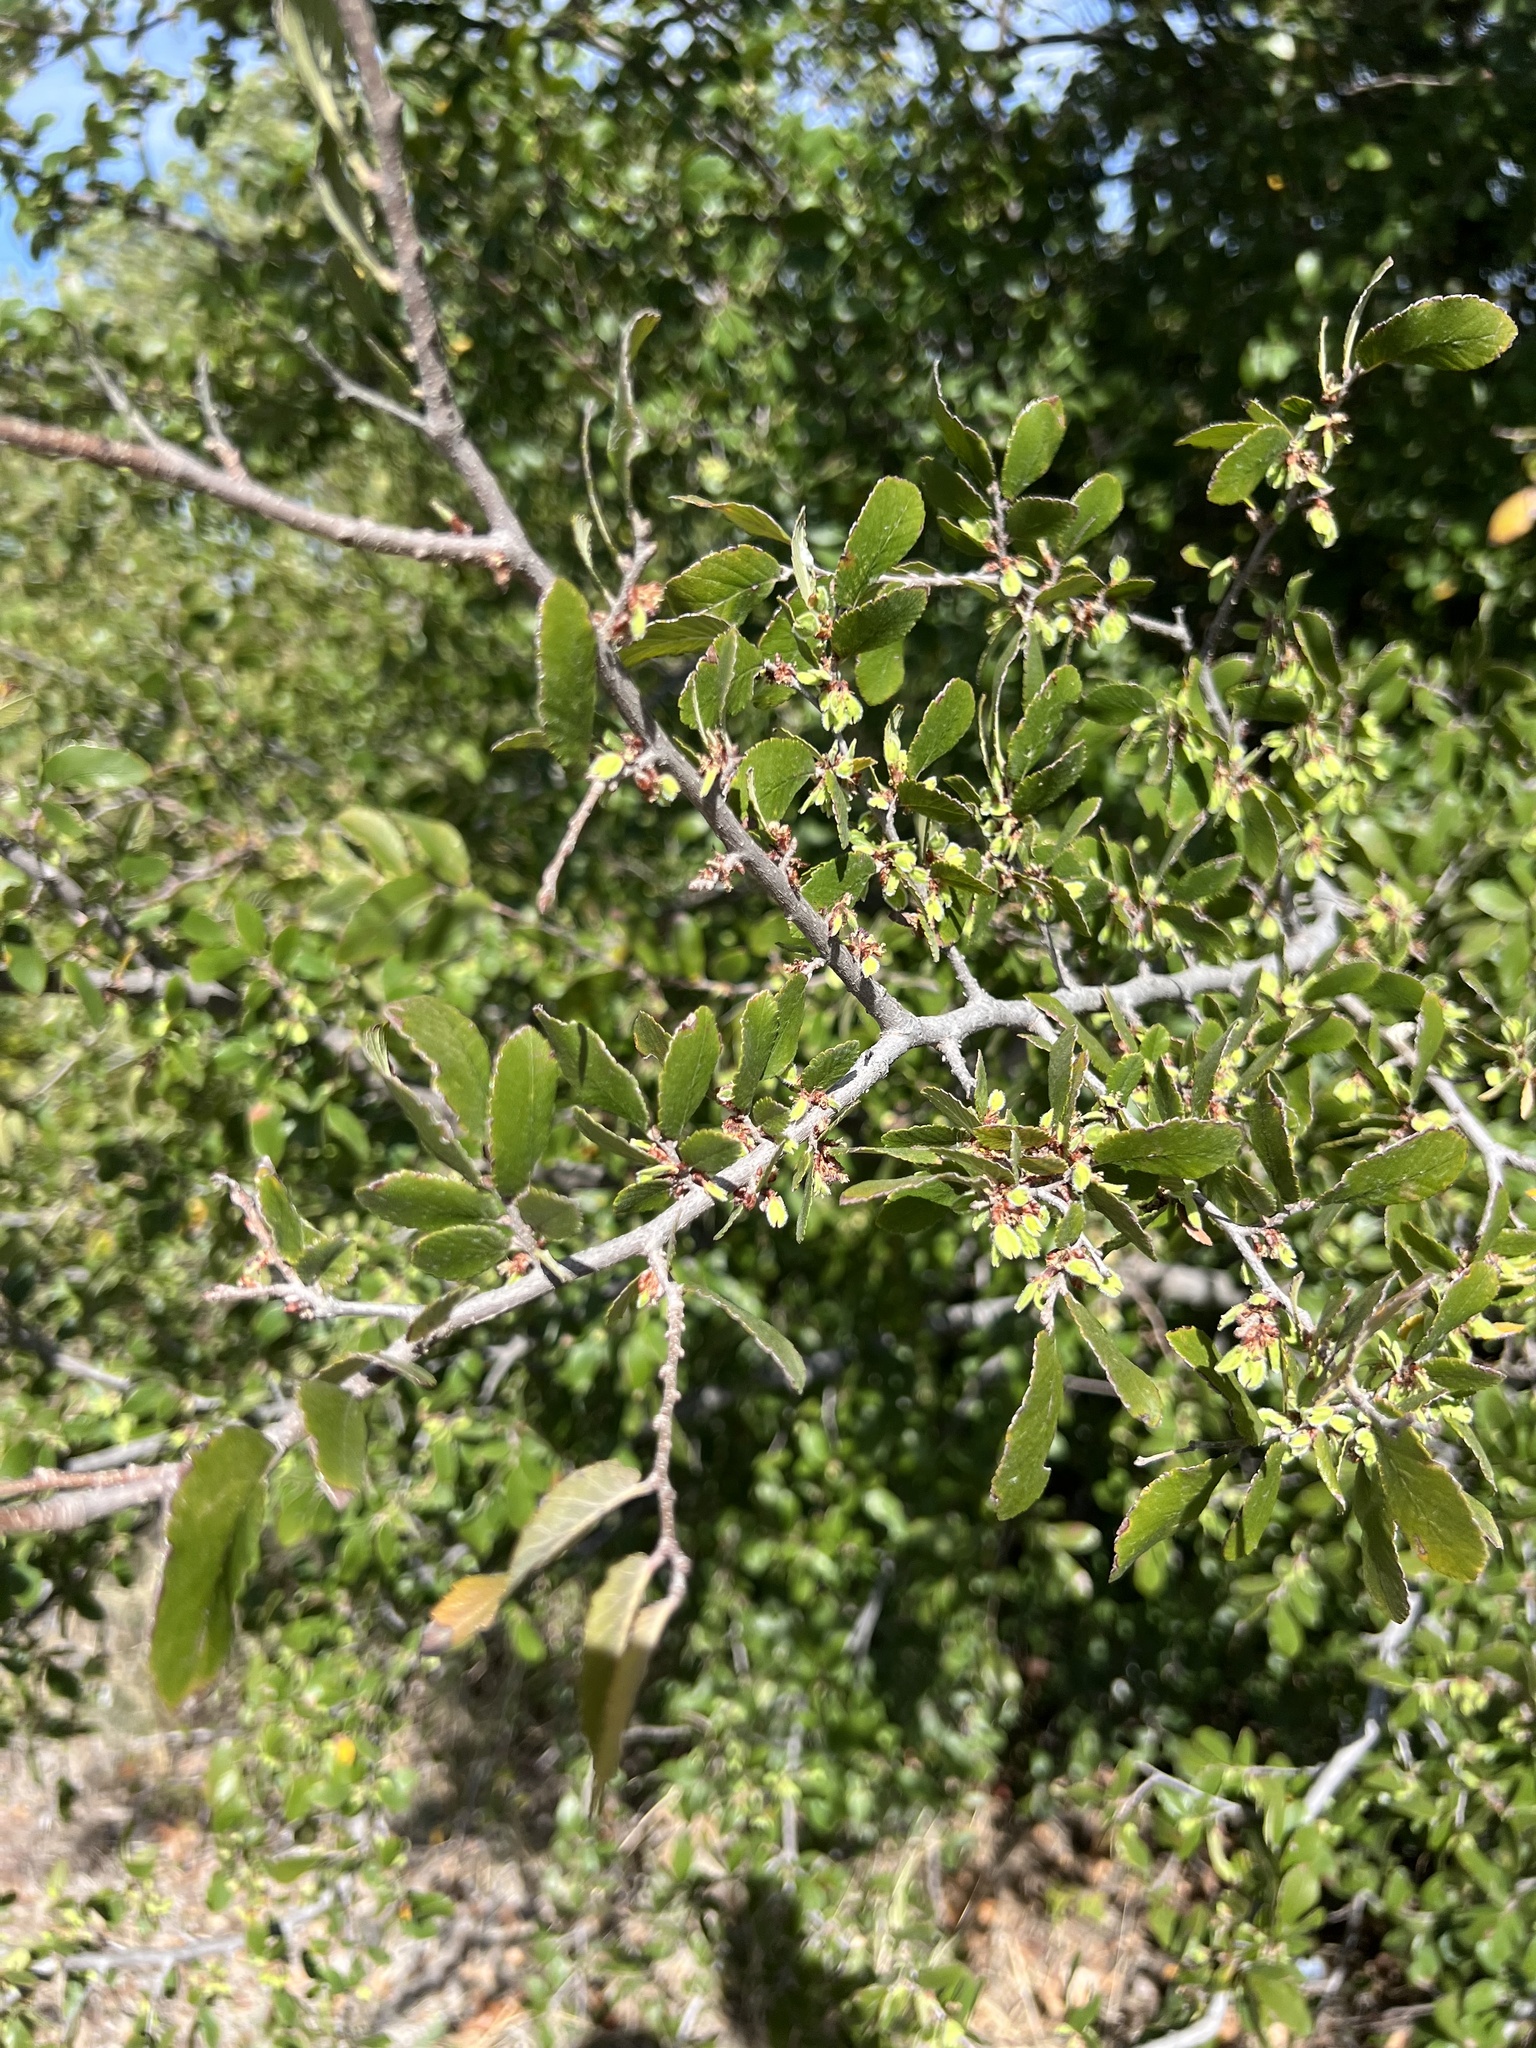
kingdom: Plantae
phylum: Tracheophyta
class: Magnoliopsida
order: Rosales
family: Ulmaceae
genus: Ulmus
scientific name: Ulmus crassifolia
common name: Basket elm
